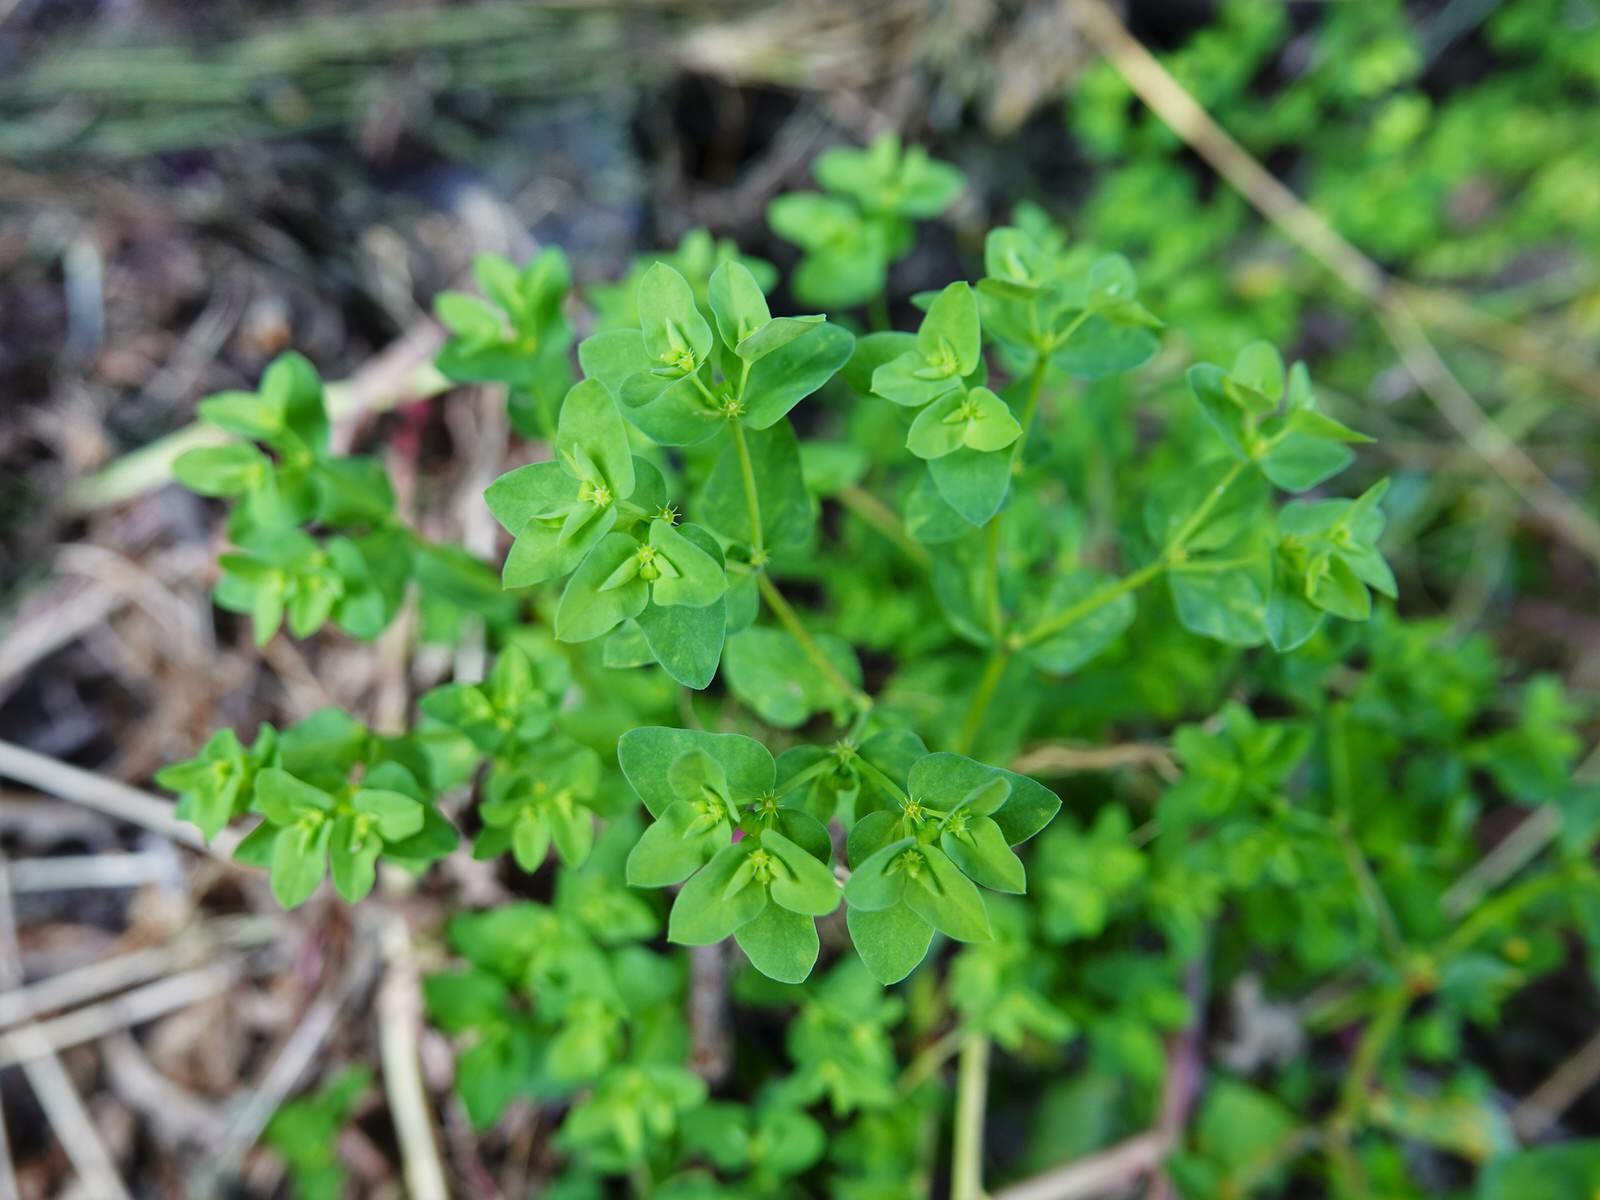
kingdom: Plantae
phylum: Tracheophyta
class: Magnoliopsida
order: Malpighiales
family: Euphorbiaceae
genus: Euphorbia
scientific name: Euphorbia peplus
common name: Petty spurge
